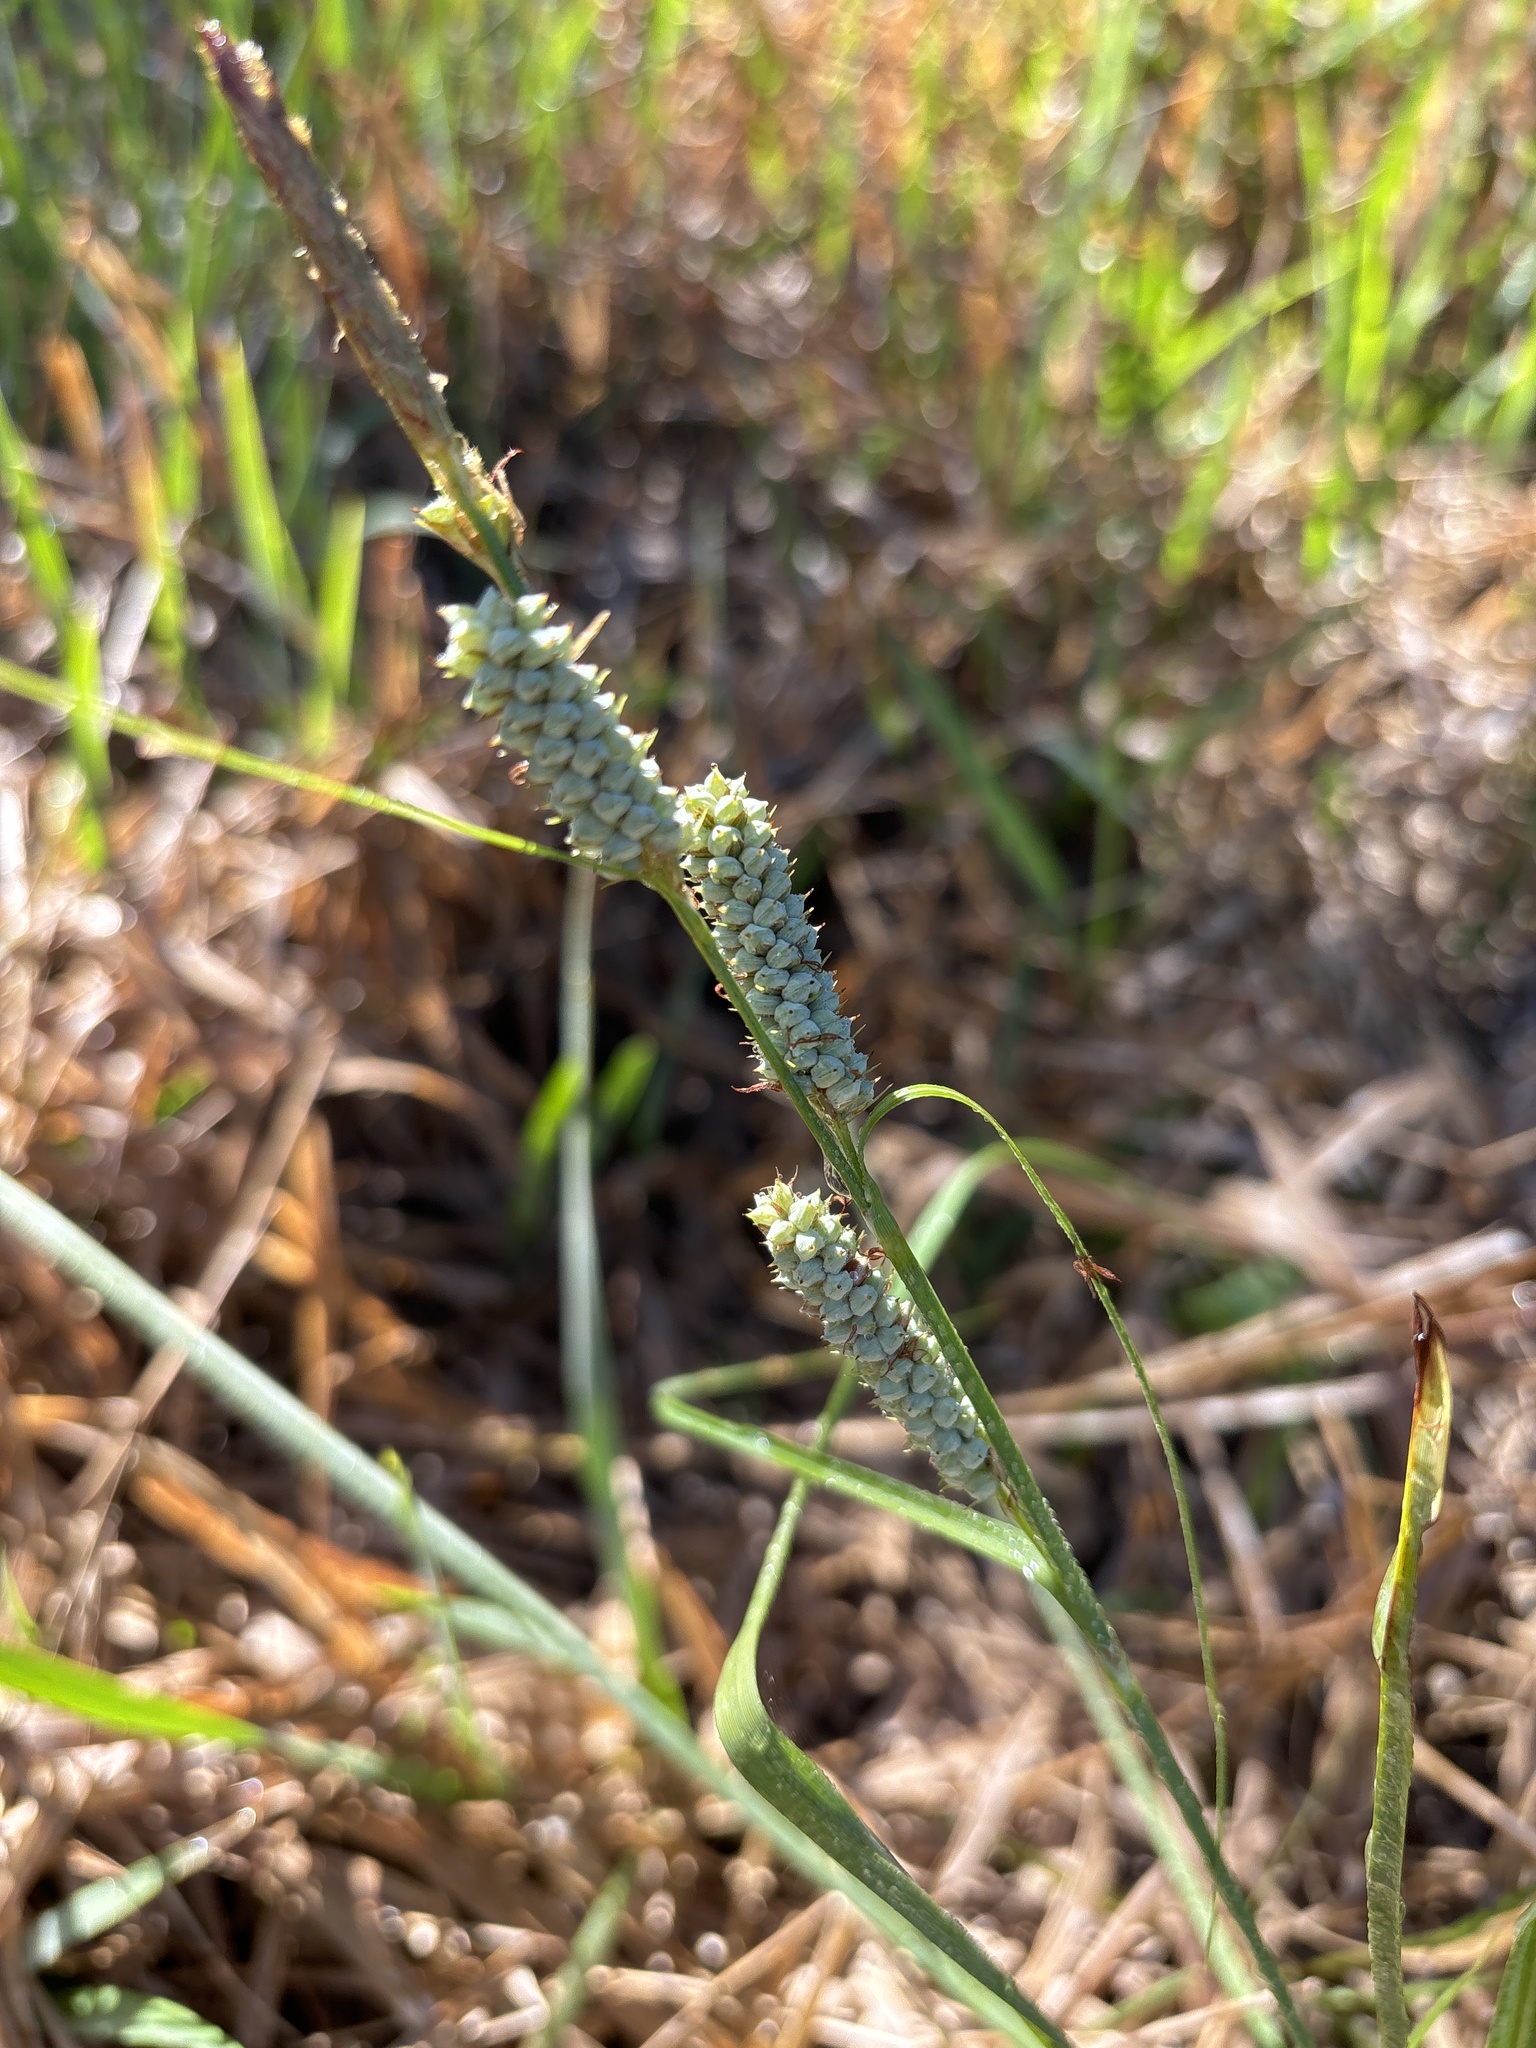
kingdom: Plantae
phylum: Tracheophyta
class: Liliopsida
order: Poales
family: Cyperaceae
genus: Carex
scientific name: Carex verrucosa
